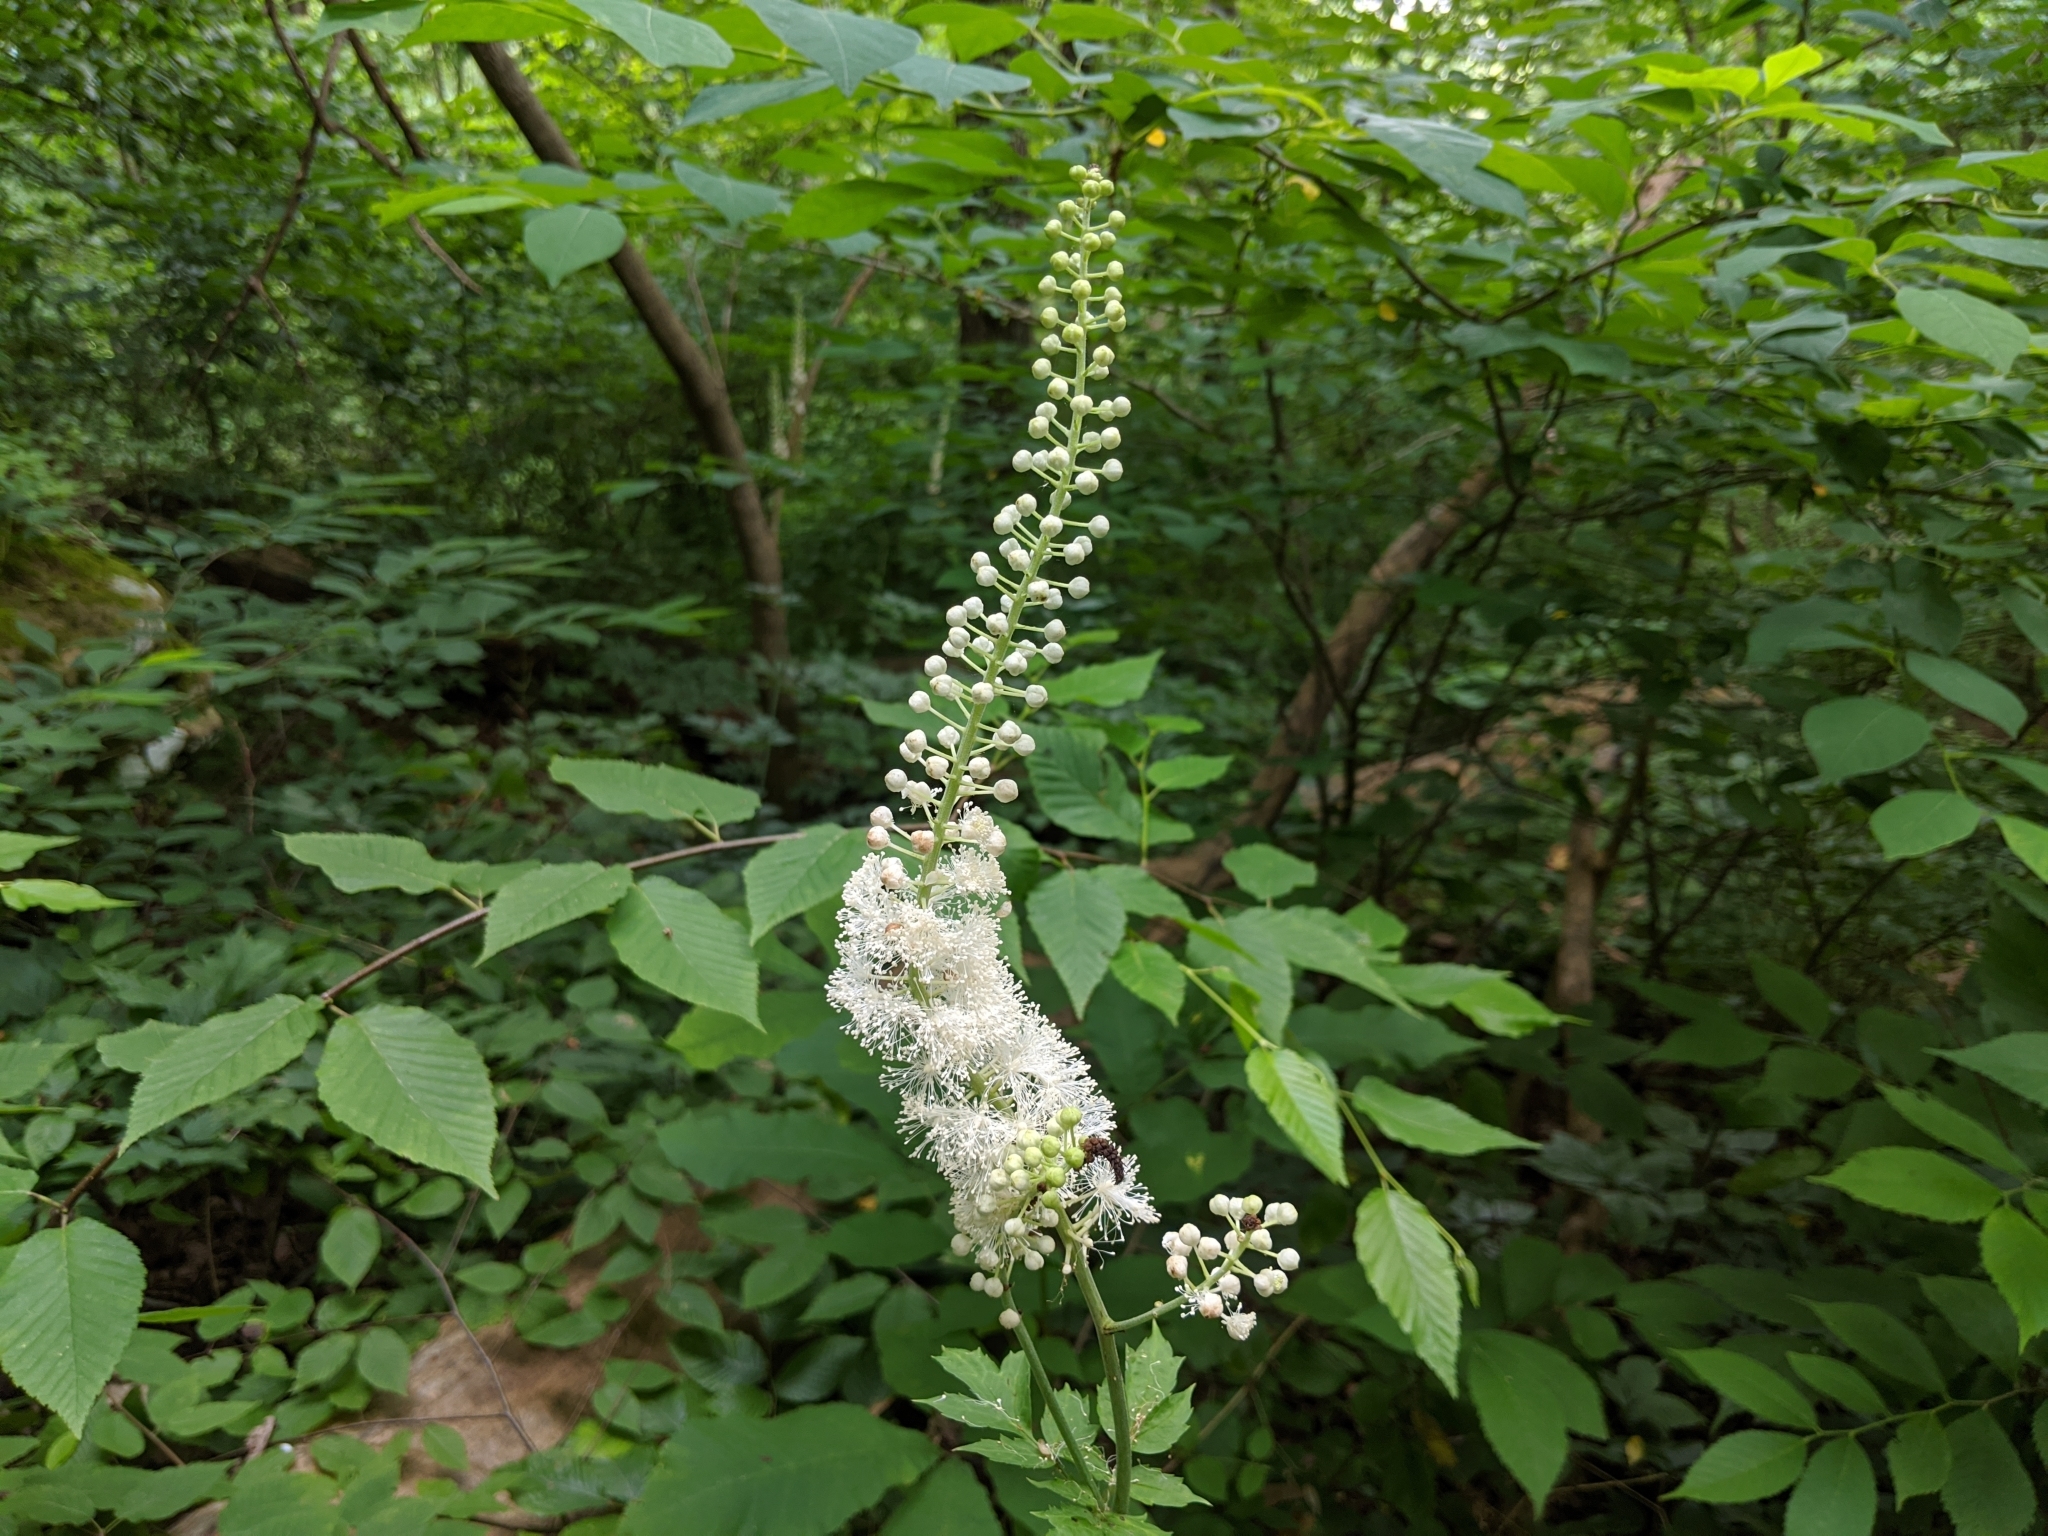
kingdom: Plantae
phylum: Tracheophyta
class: Magnoliopsida
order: Ranunculales
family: Ranunculaceae
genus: Actaea
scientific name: Actaea racemosa
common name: Black cohosh
